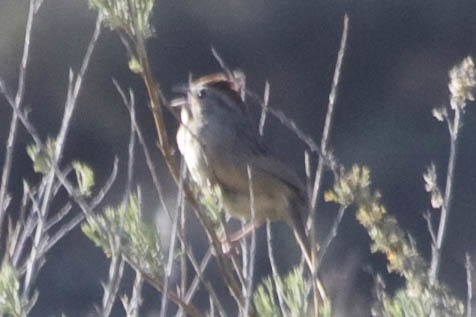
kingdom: Animalia
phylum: Chordata
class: Aves
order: Passeriformes
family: Passerellidae
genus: Aimophila
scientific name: Aimophila ruficeps
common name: Rufous-crowned sparrow
